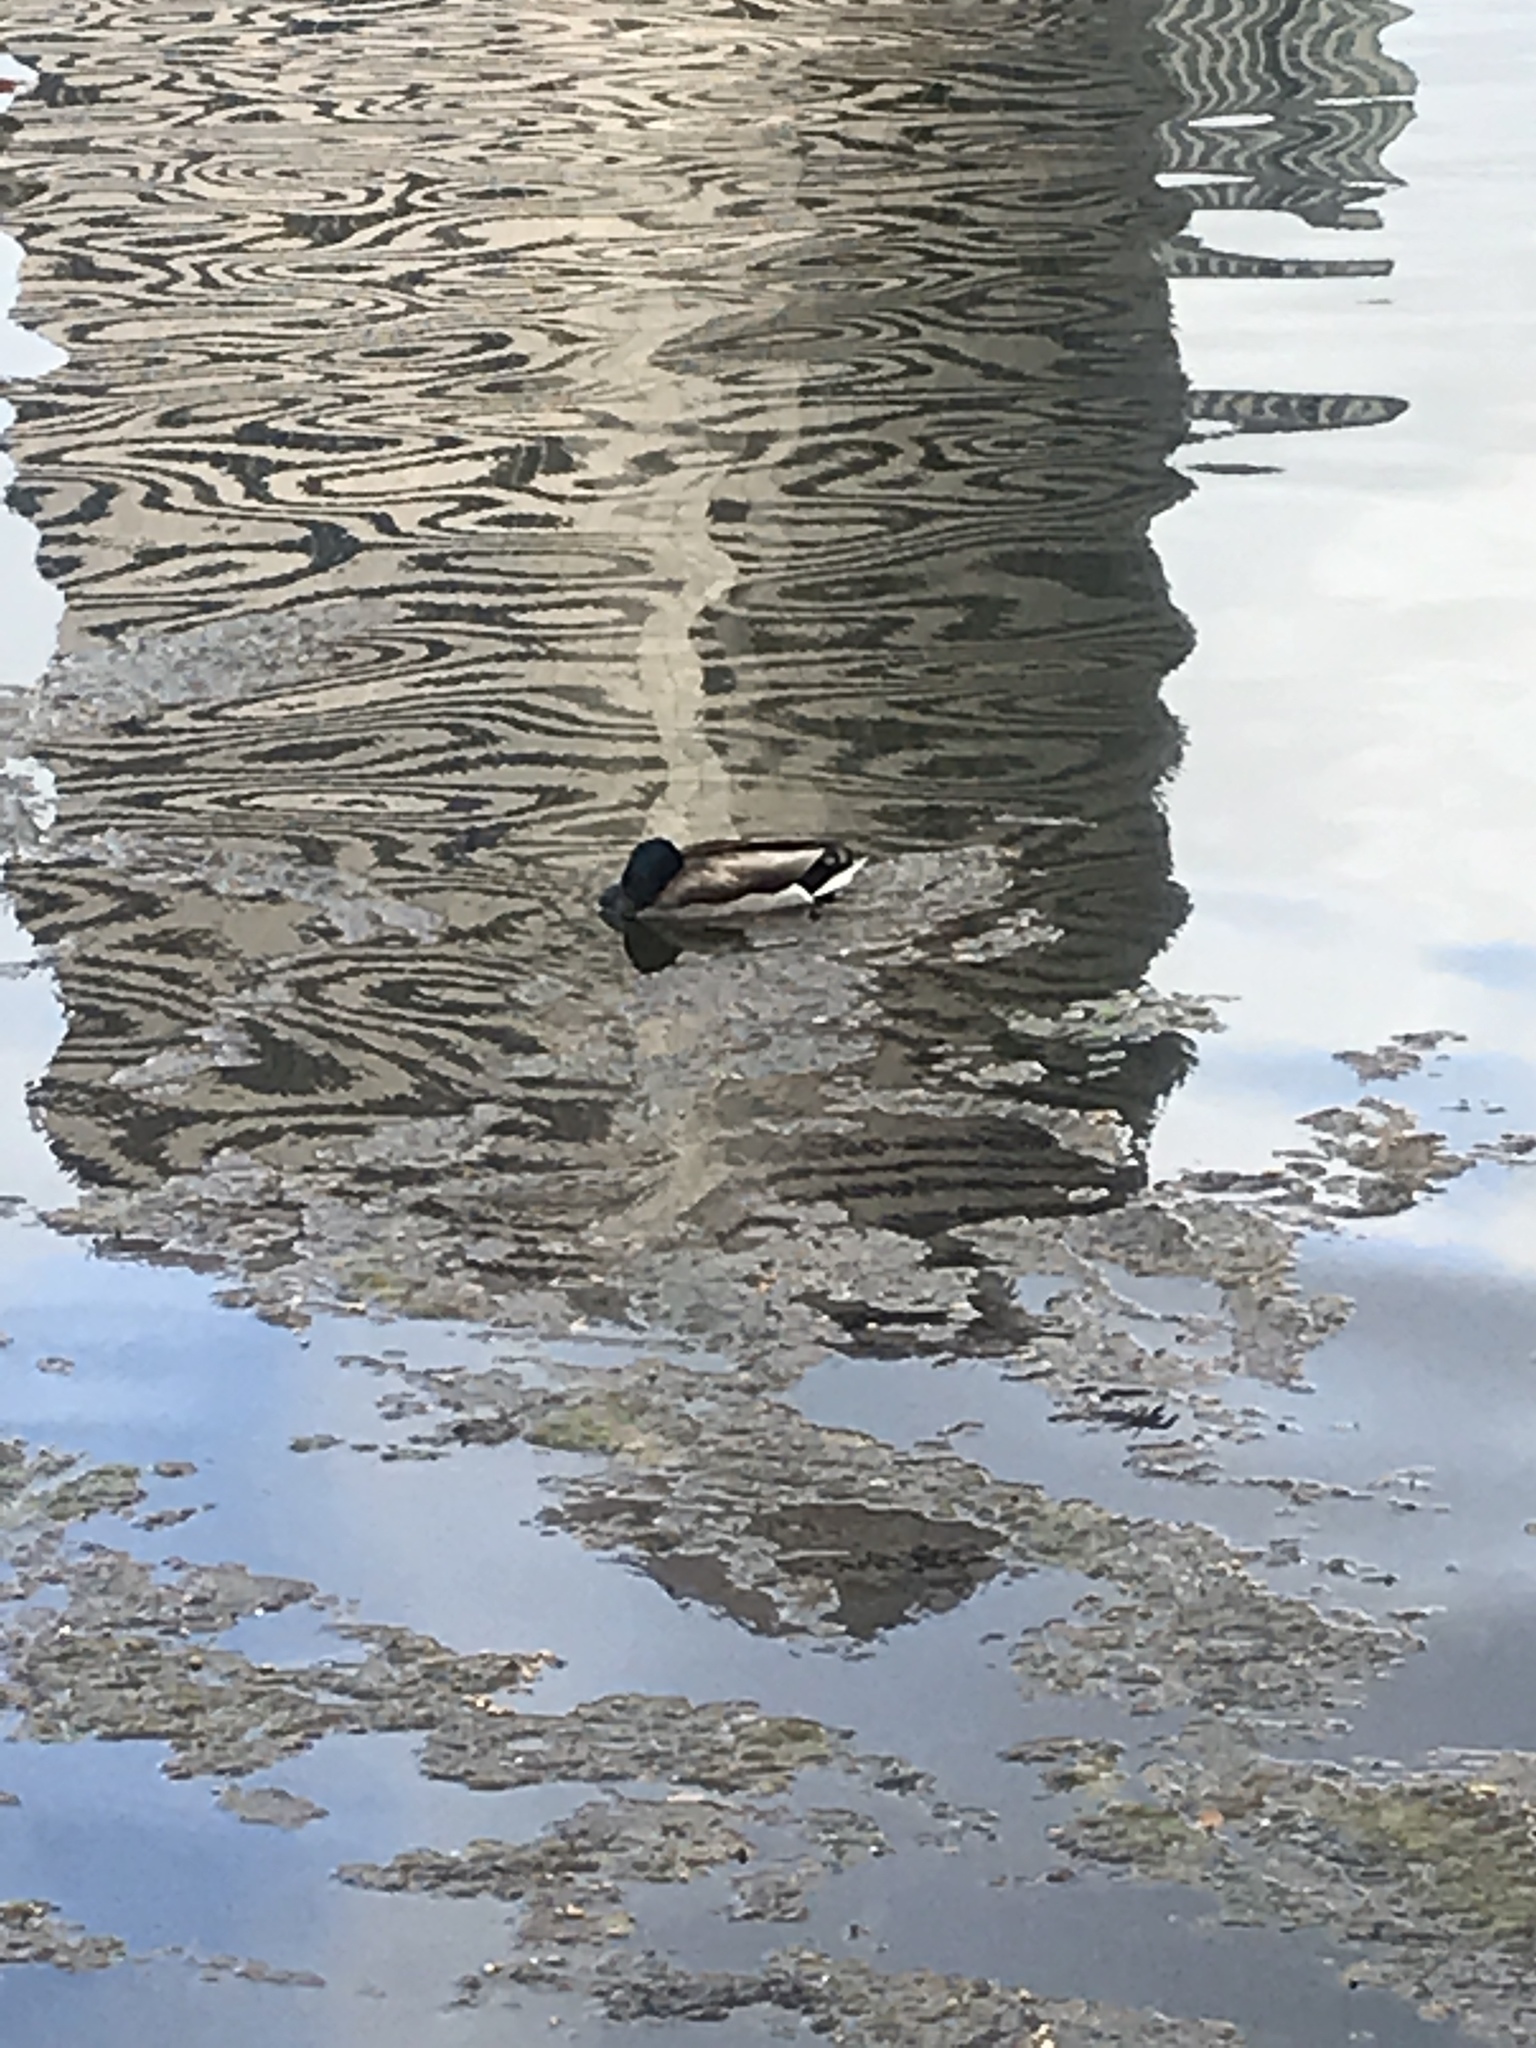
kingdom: Animalia
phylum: Chordata
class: Aves
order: Anseriformes
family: Anatidae
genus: Anas
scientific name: Anas platyrhynchos
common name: Mallard
